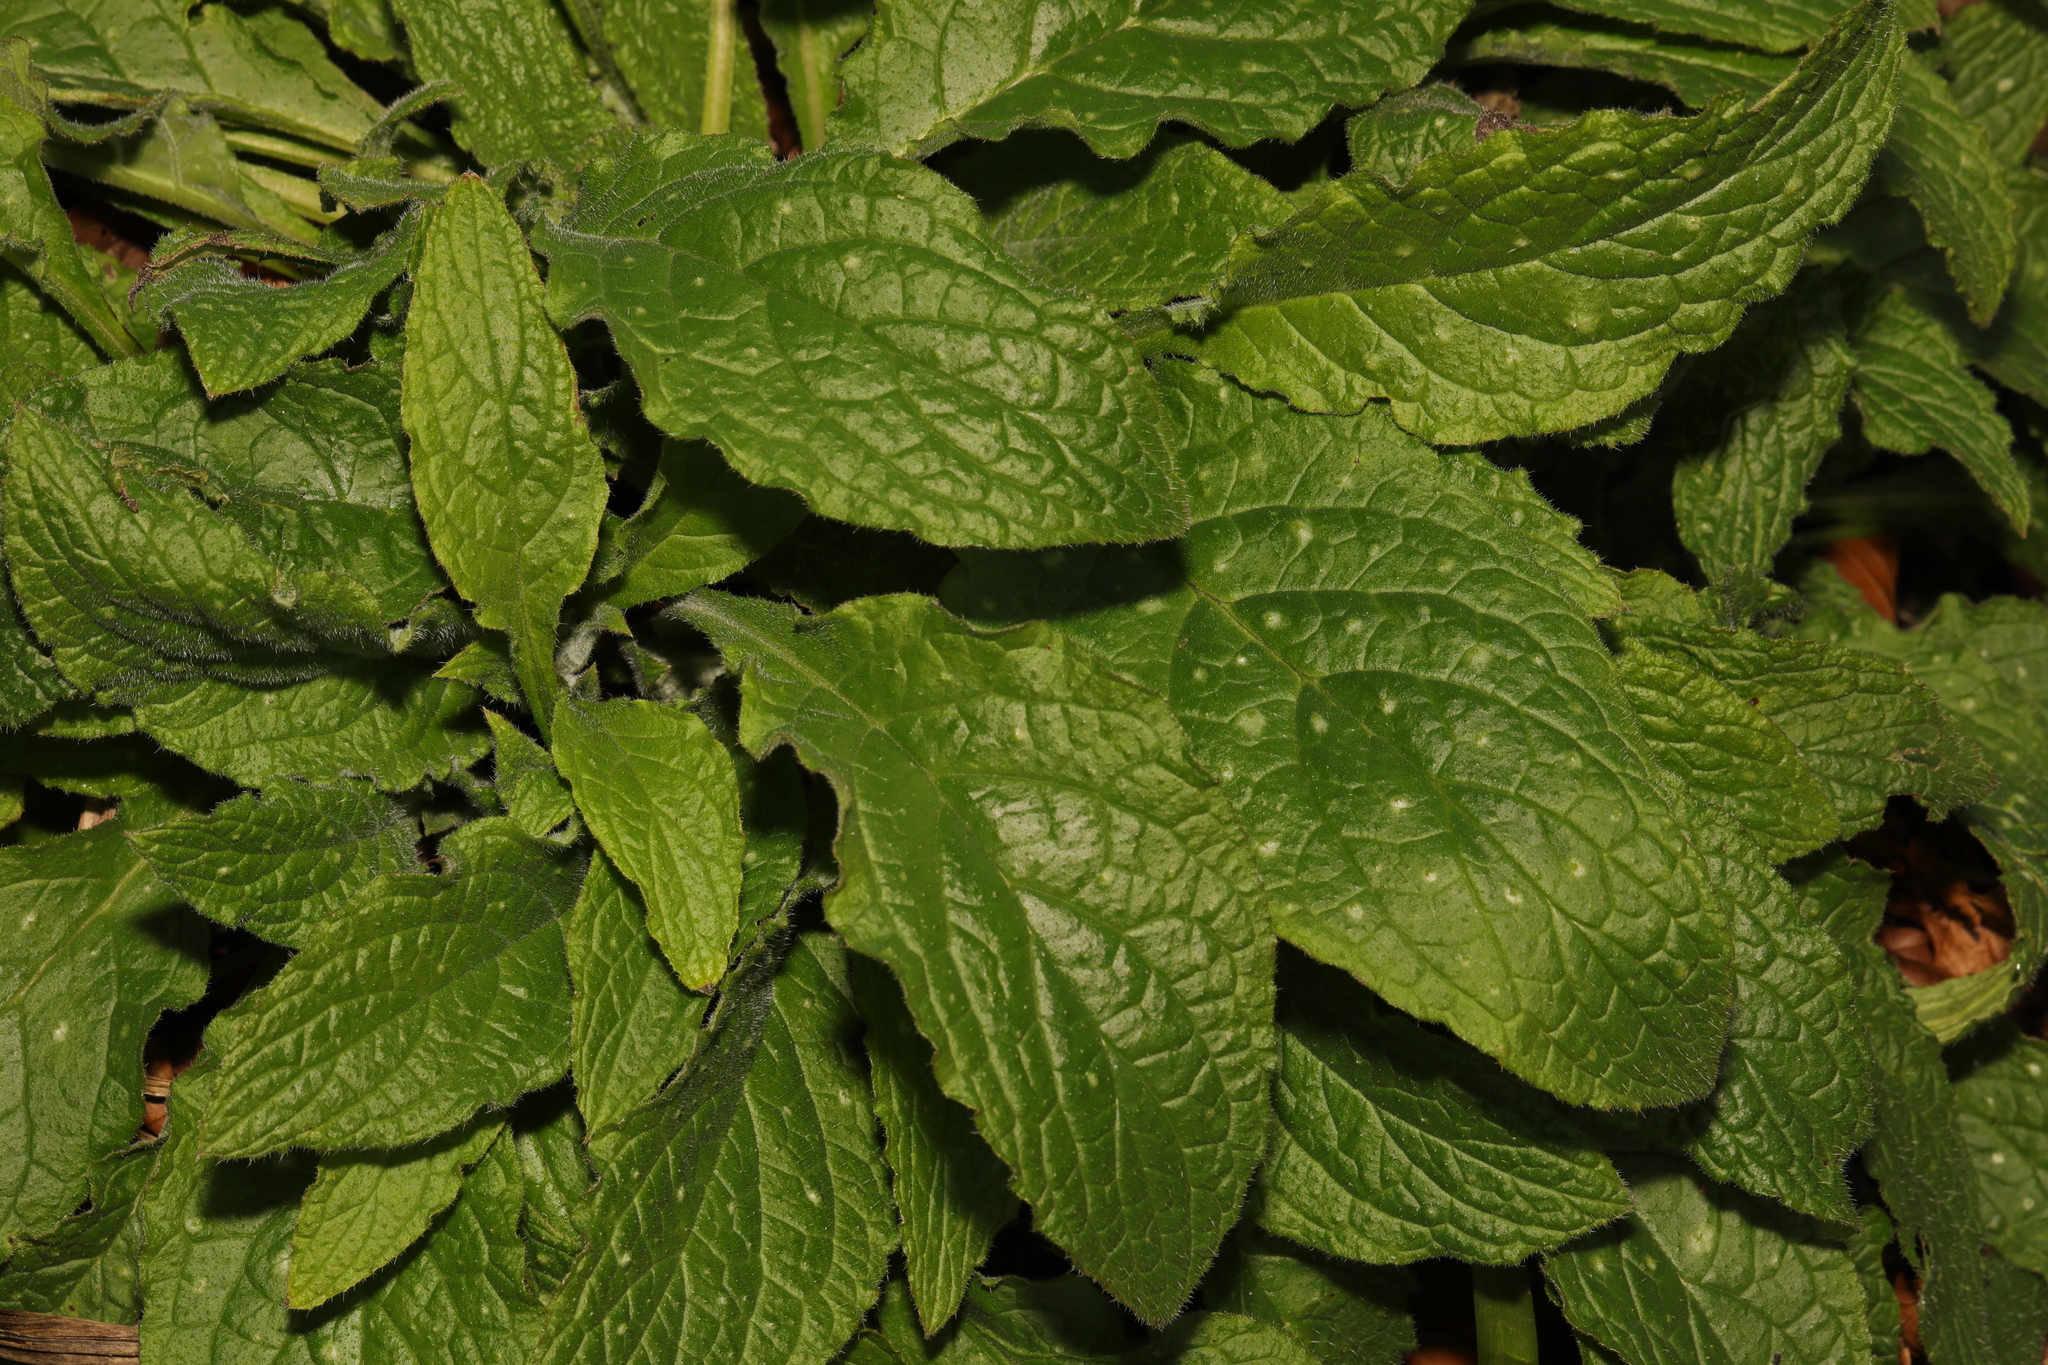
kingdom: Plantae
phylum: Tracheophyta
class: Magnoliopsida
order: Boraginales
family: Boraginaceae
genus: Pentaglottis
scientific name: Pentaglottis sempervirens
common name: Green alkanet
